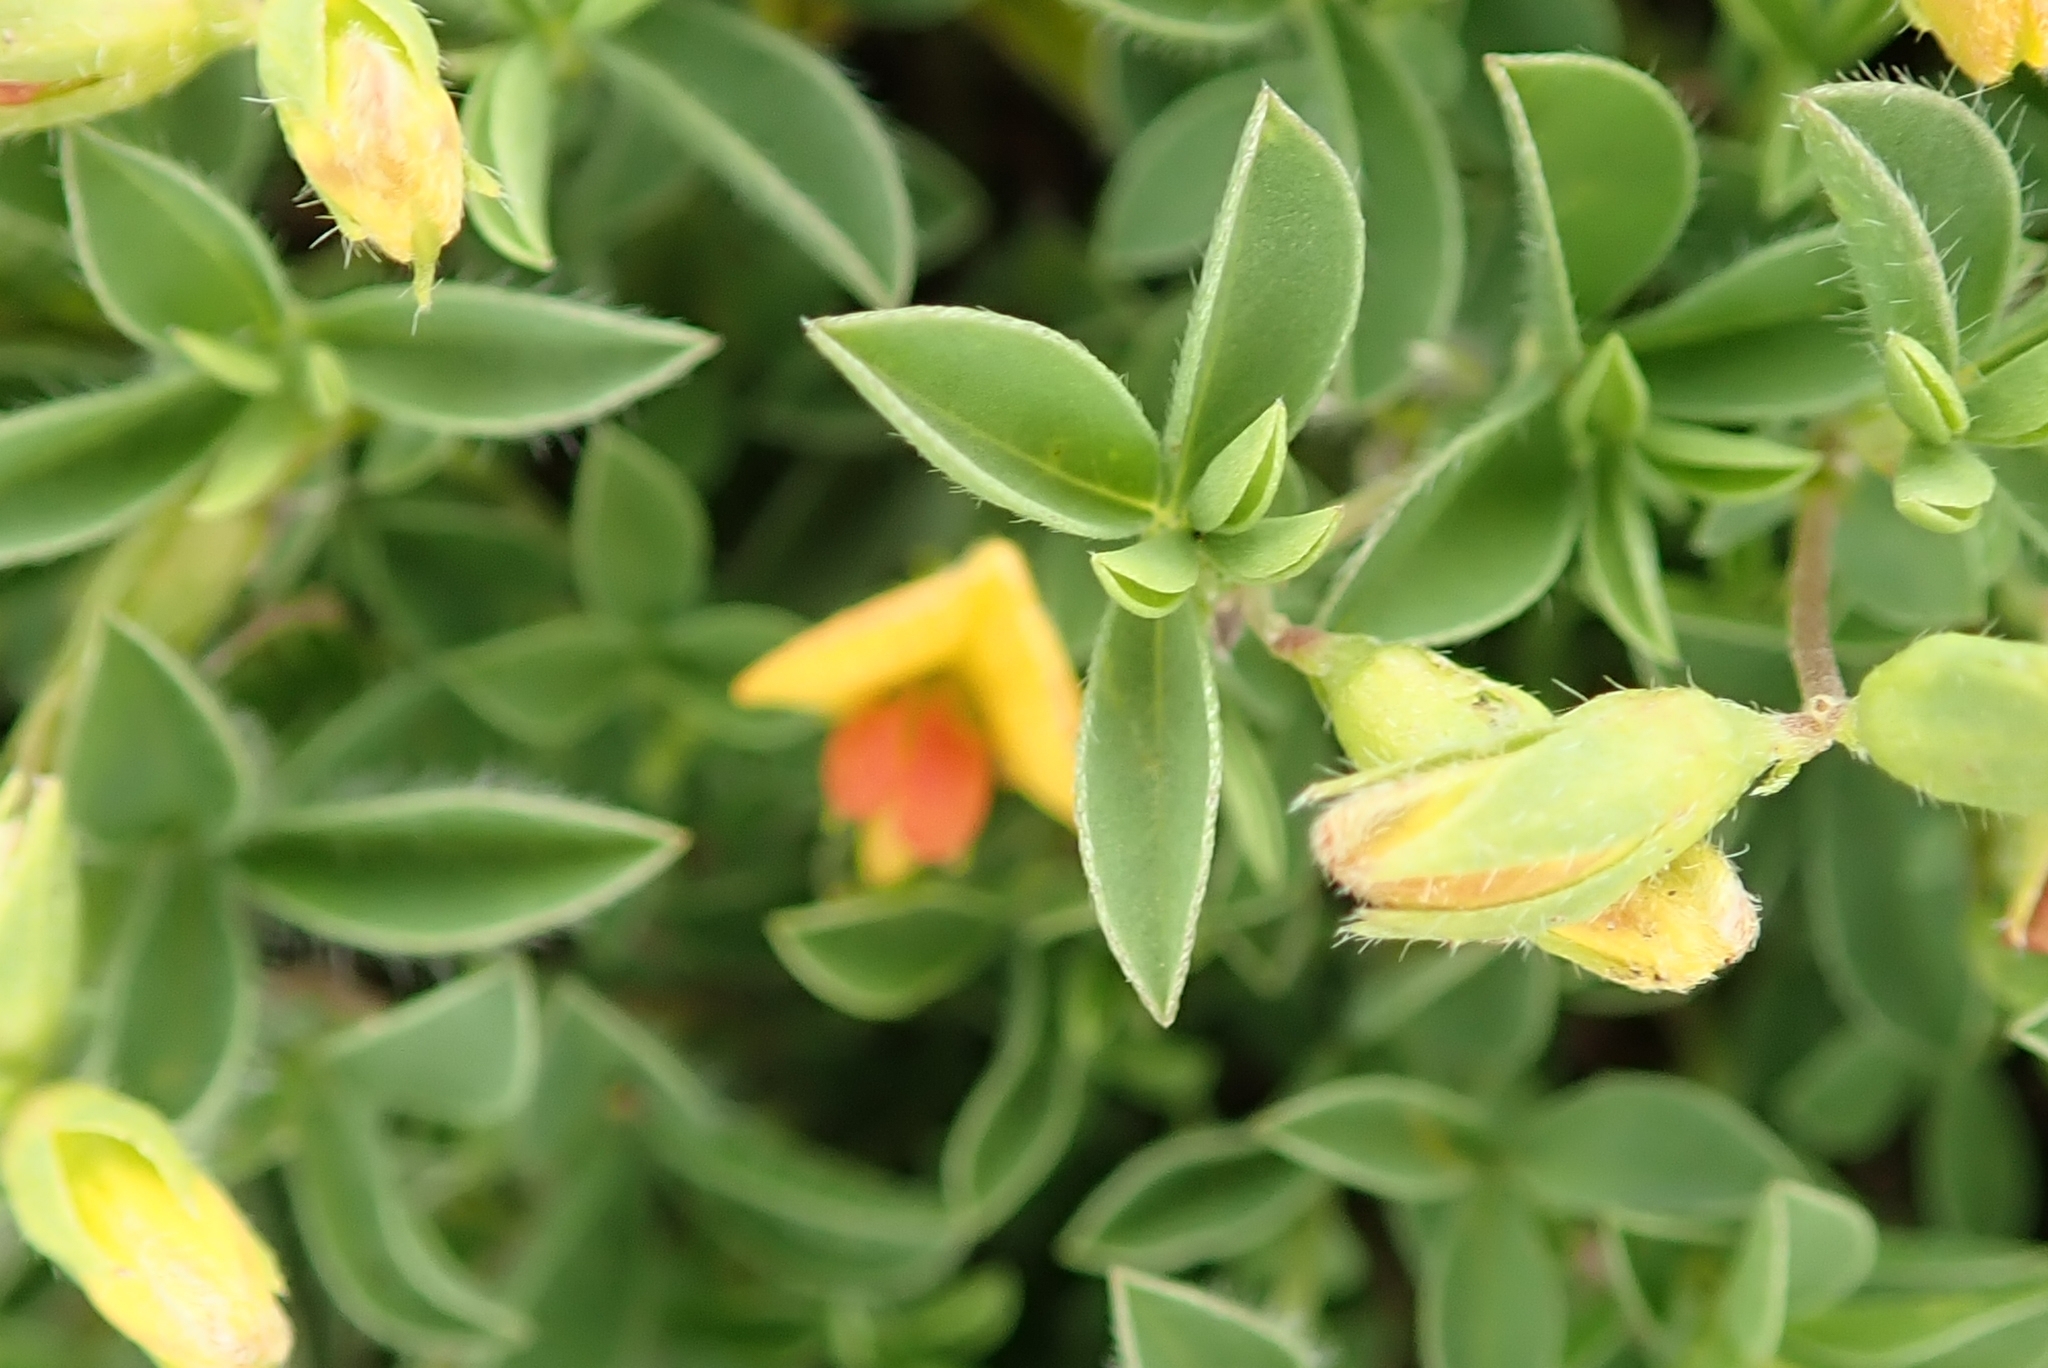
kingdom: Plantae
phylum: Tracheophyta
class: Magnoliopsida
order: Fabales
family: Fabaceae
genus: Argyrolobium
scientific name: Argyrolobium stipulaceum
